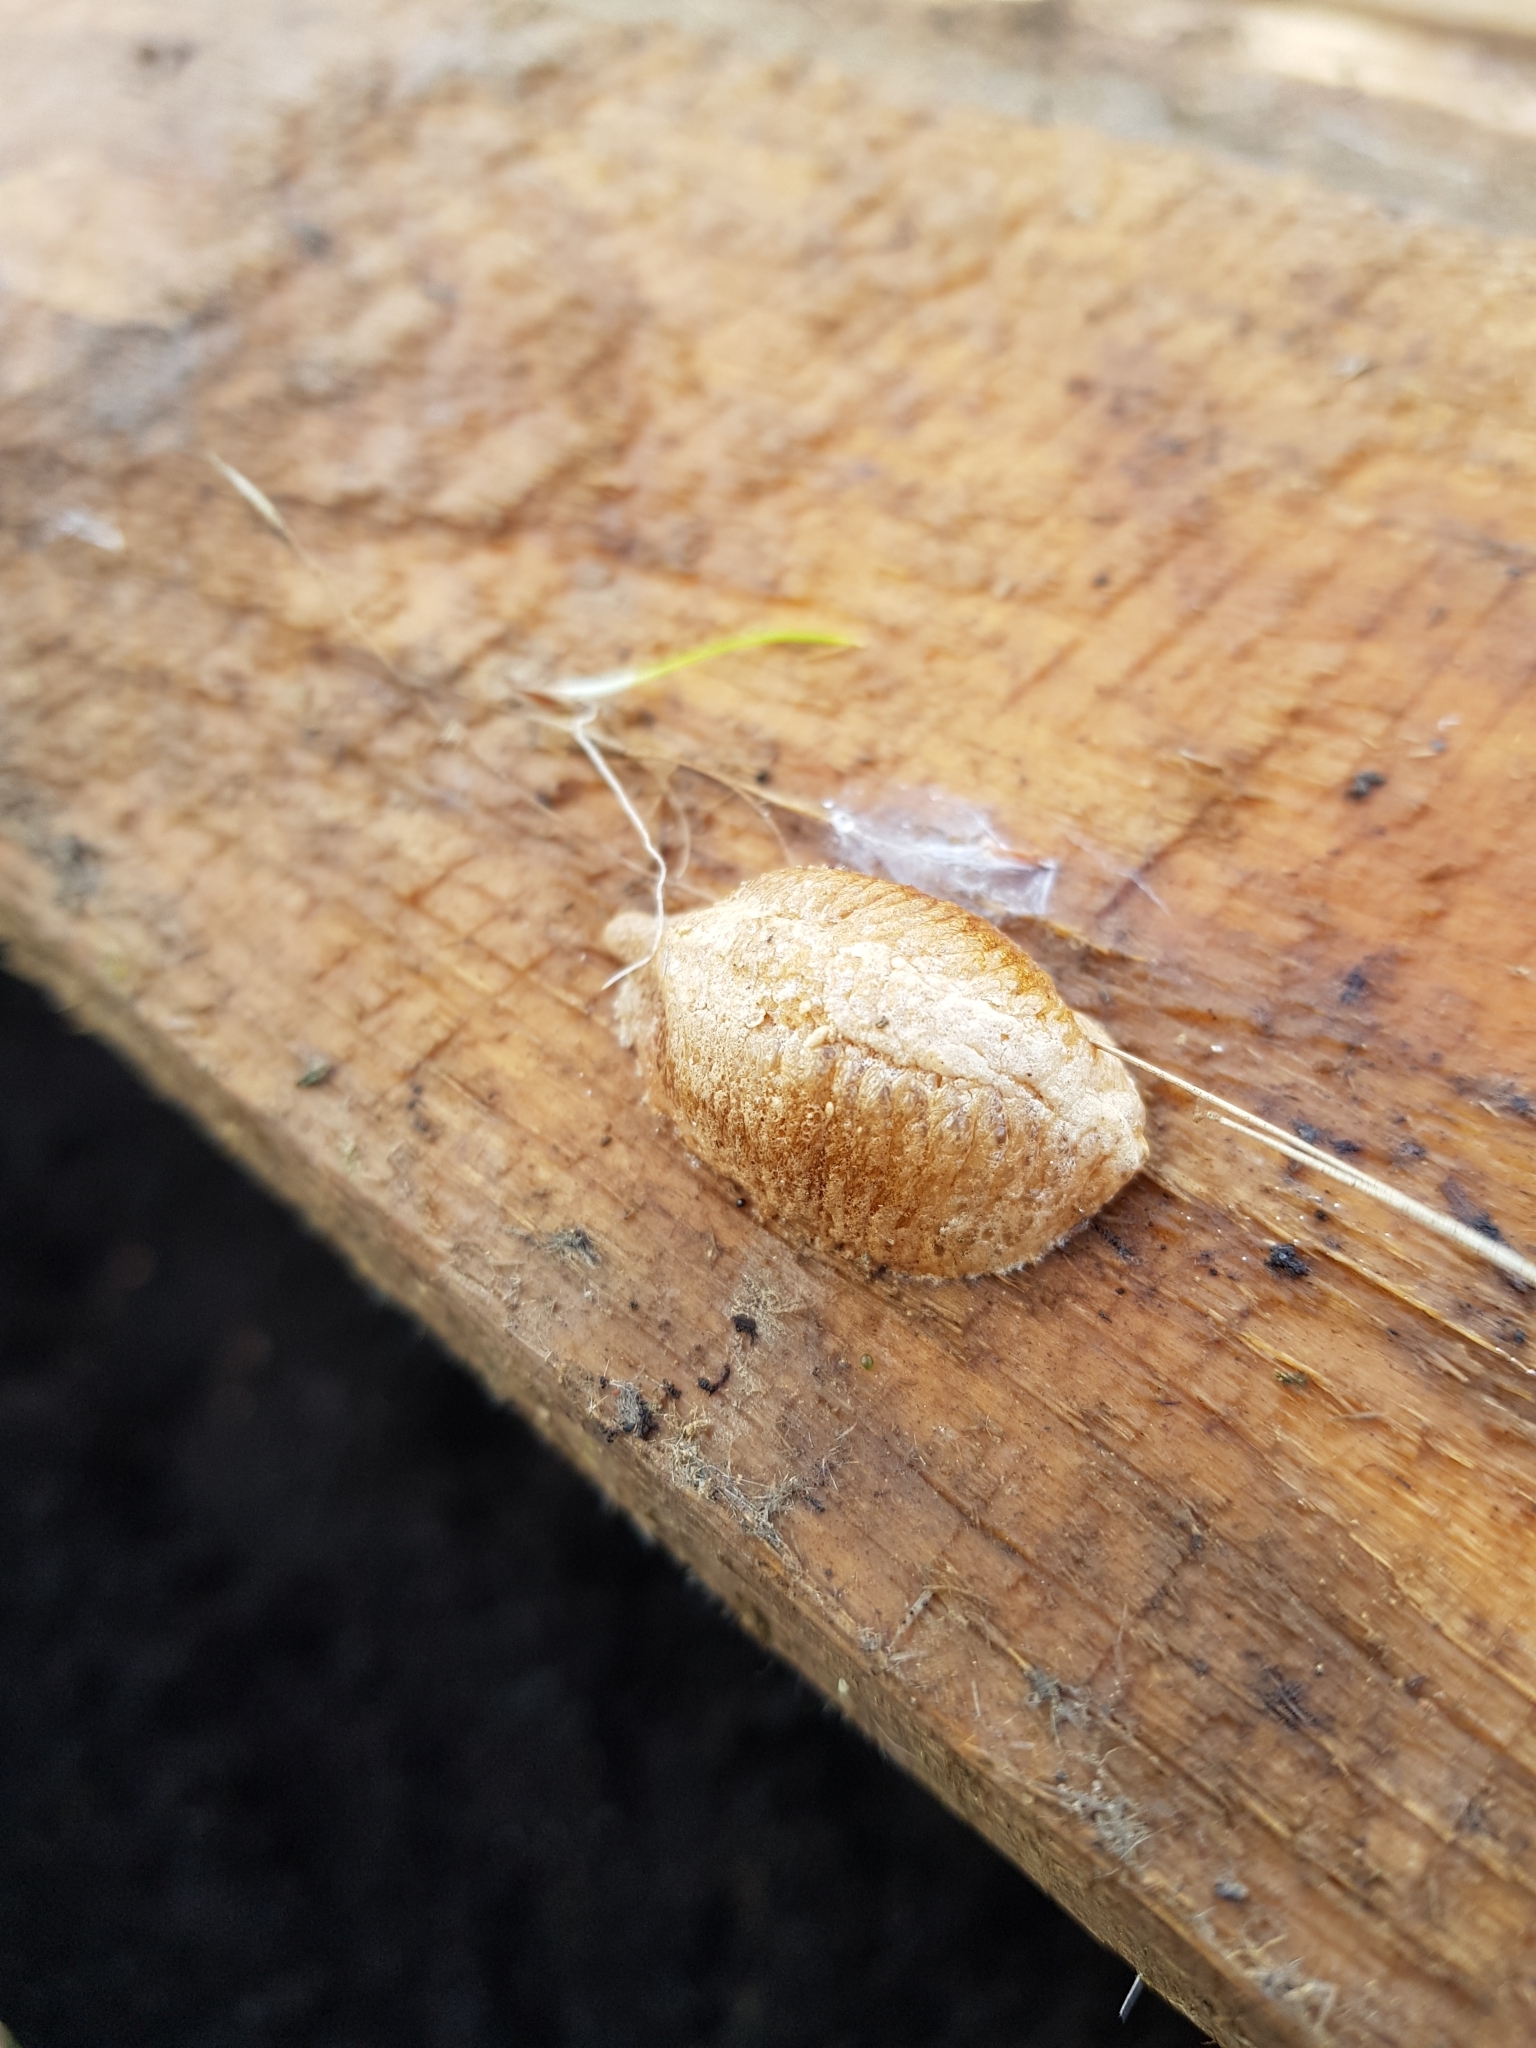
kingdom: Animalia
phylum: Arthropoda
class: Insecta
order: Mantodea
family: Mantidae
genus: Mantis
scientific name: Mantis religiosa
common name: Praying mantis
